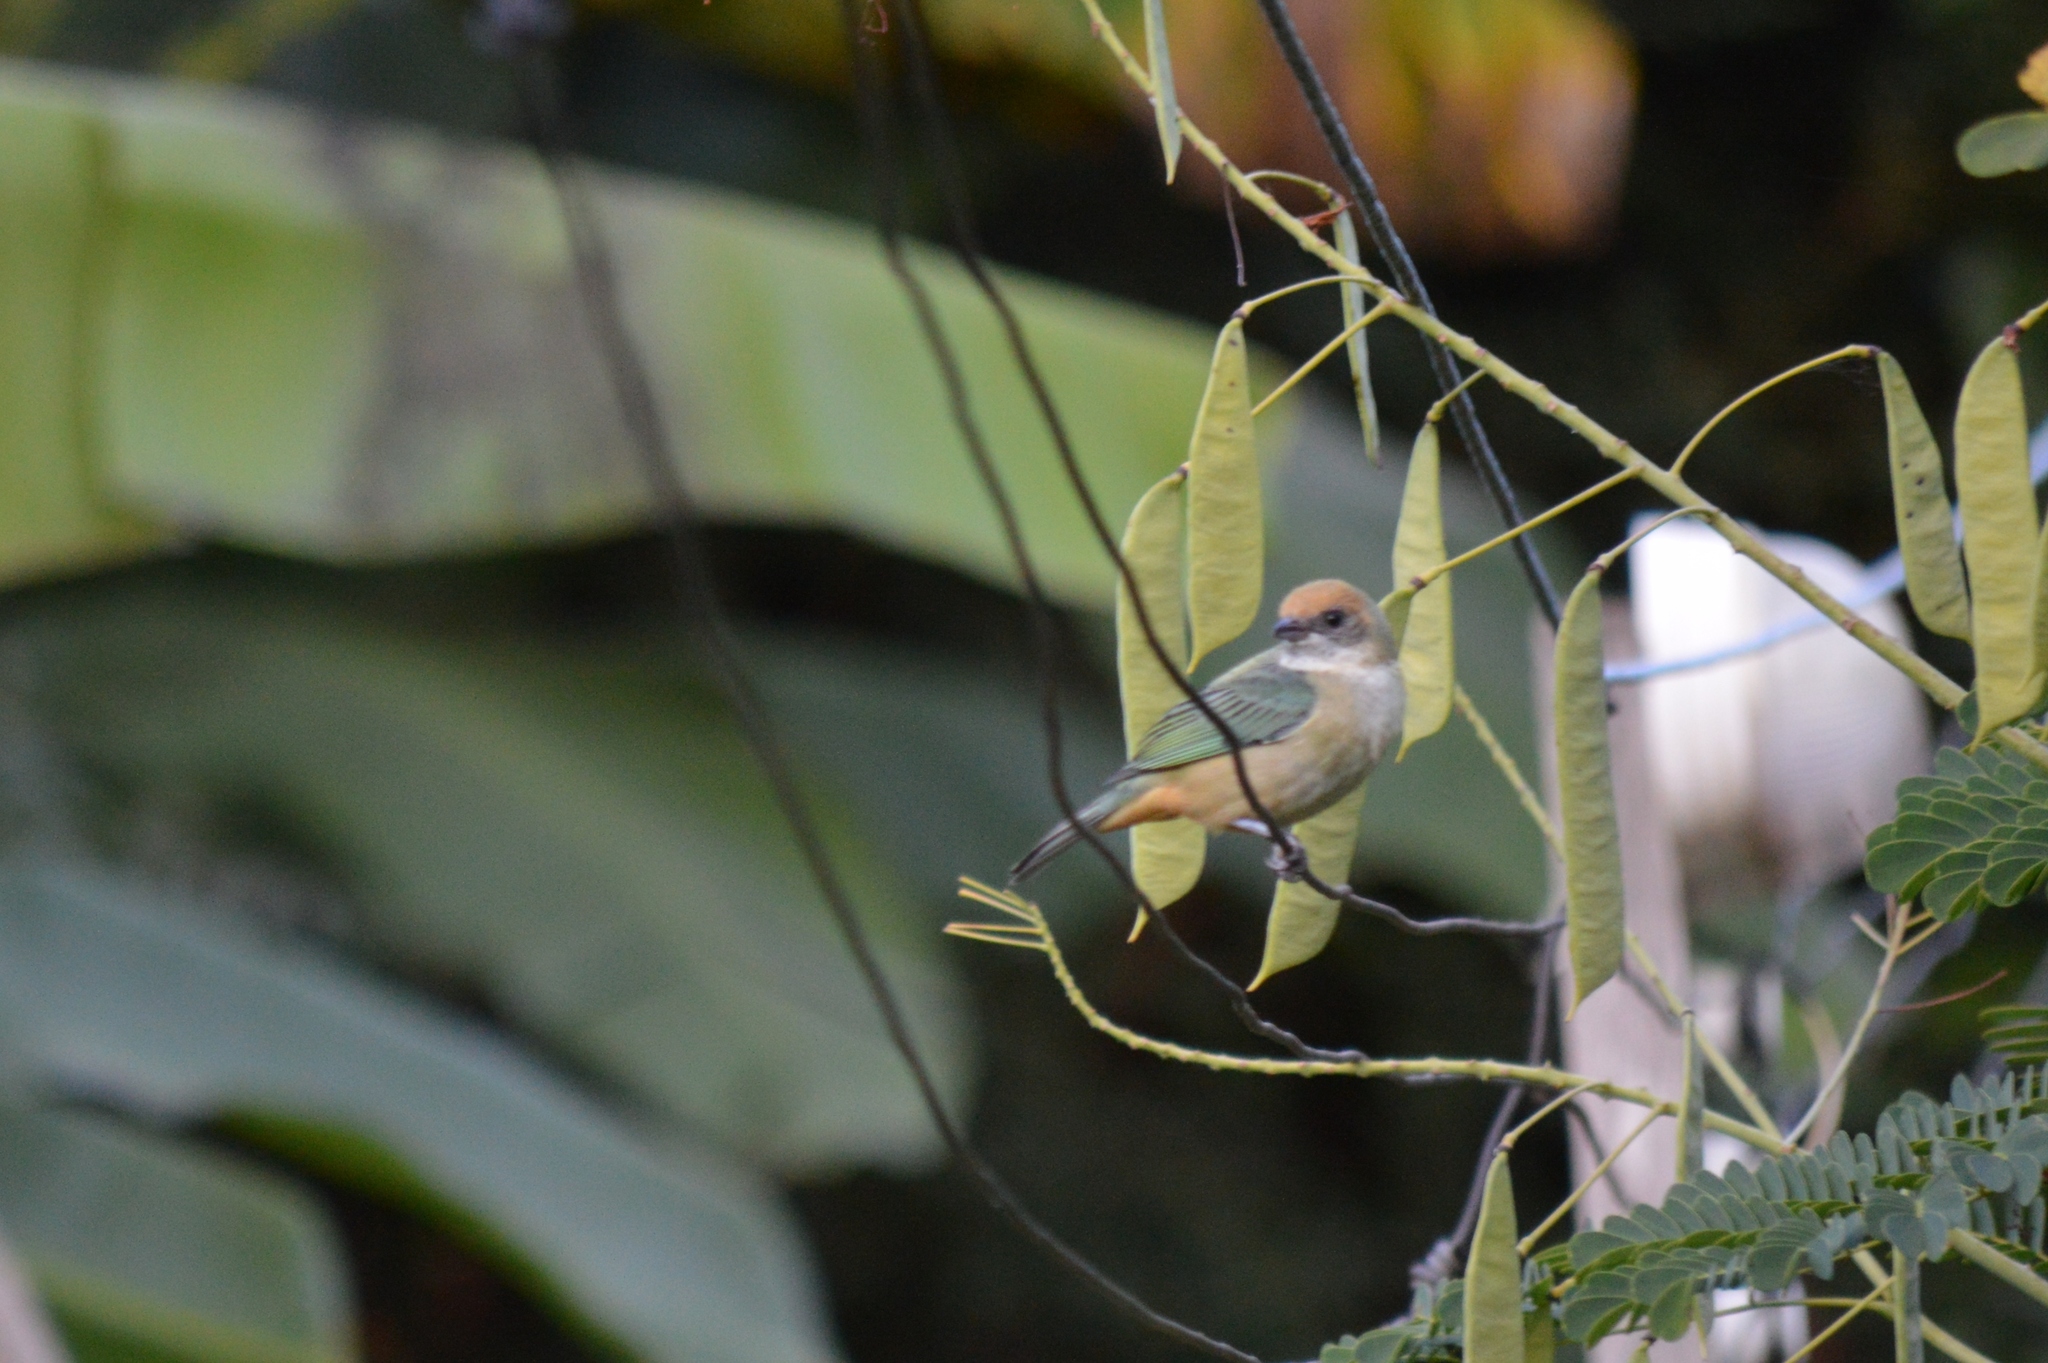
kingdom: Animalia
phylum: Chordata
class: Aves
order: Passeriformes
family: Thraupidae
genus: Stilpnia
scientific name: Stilpnia cayana
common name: Burnished-buff tanager
